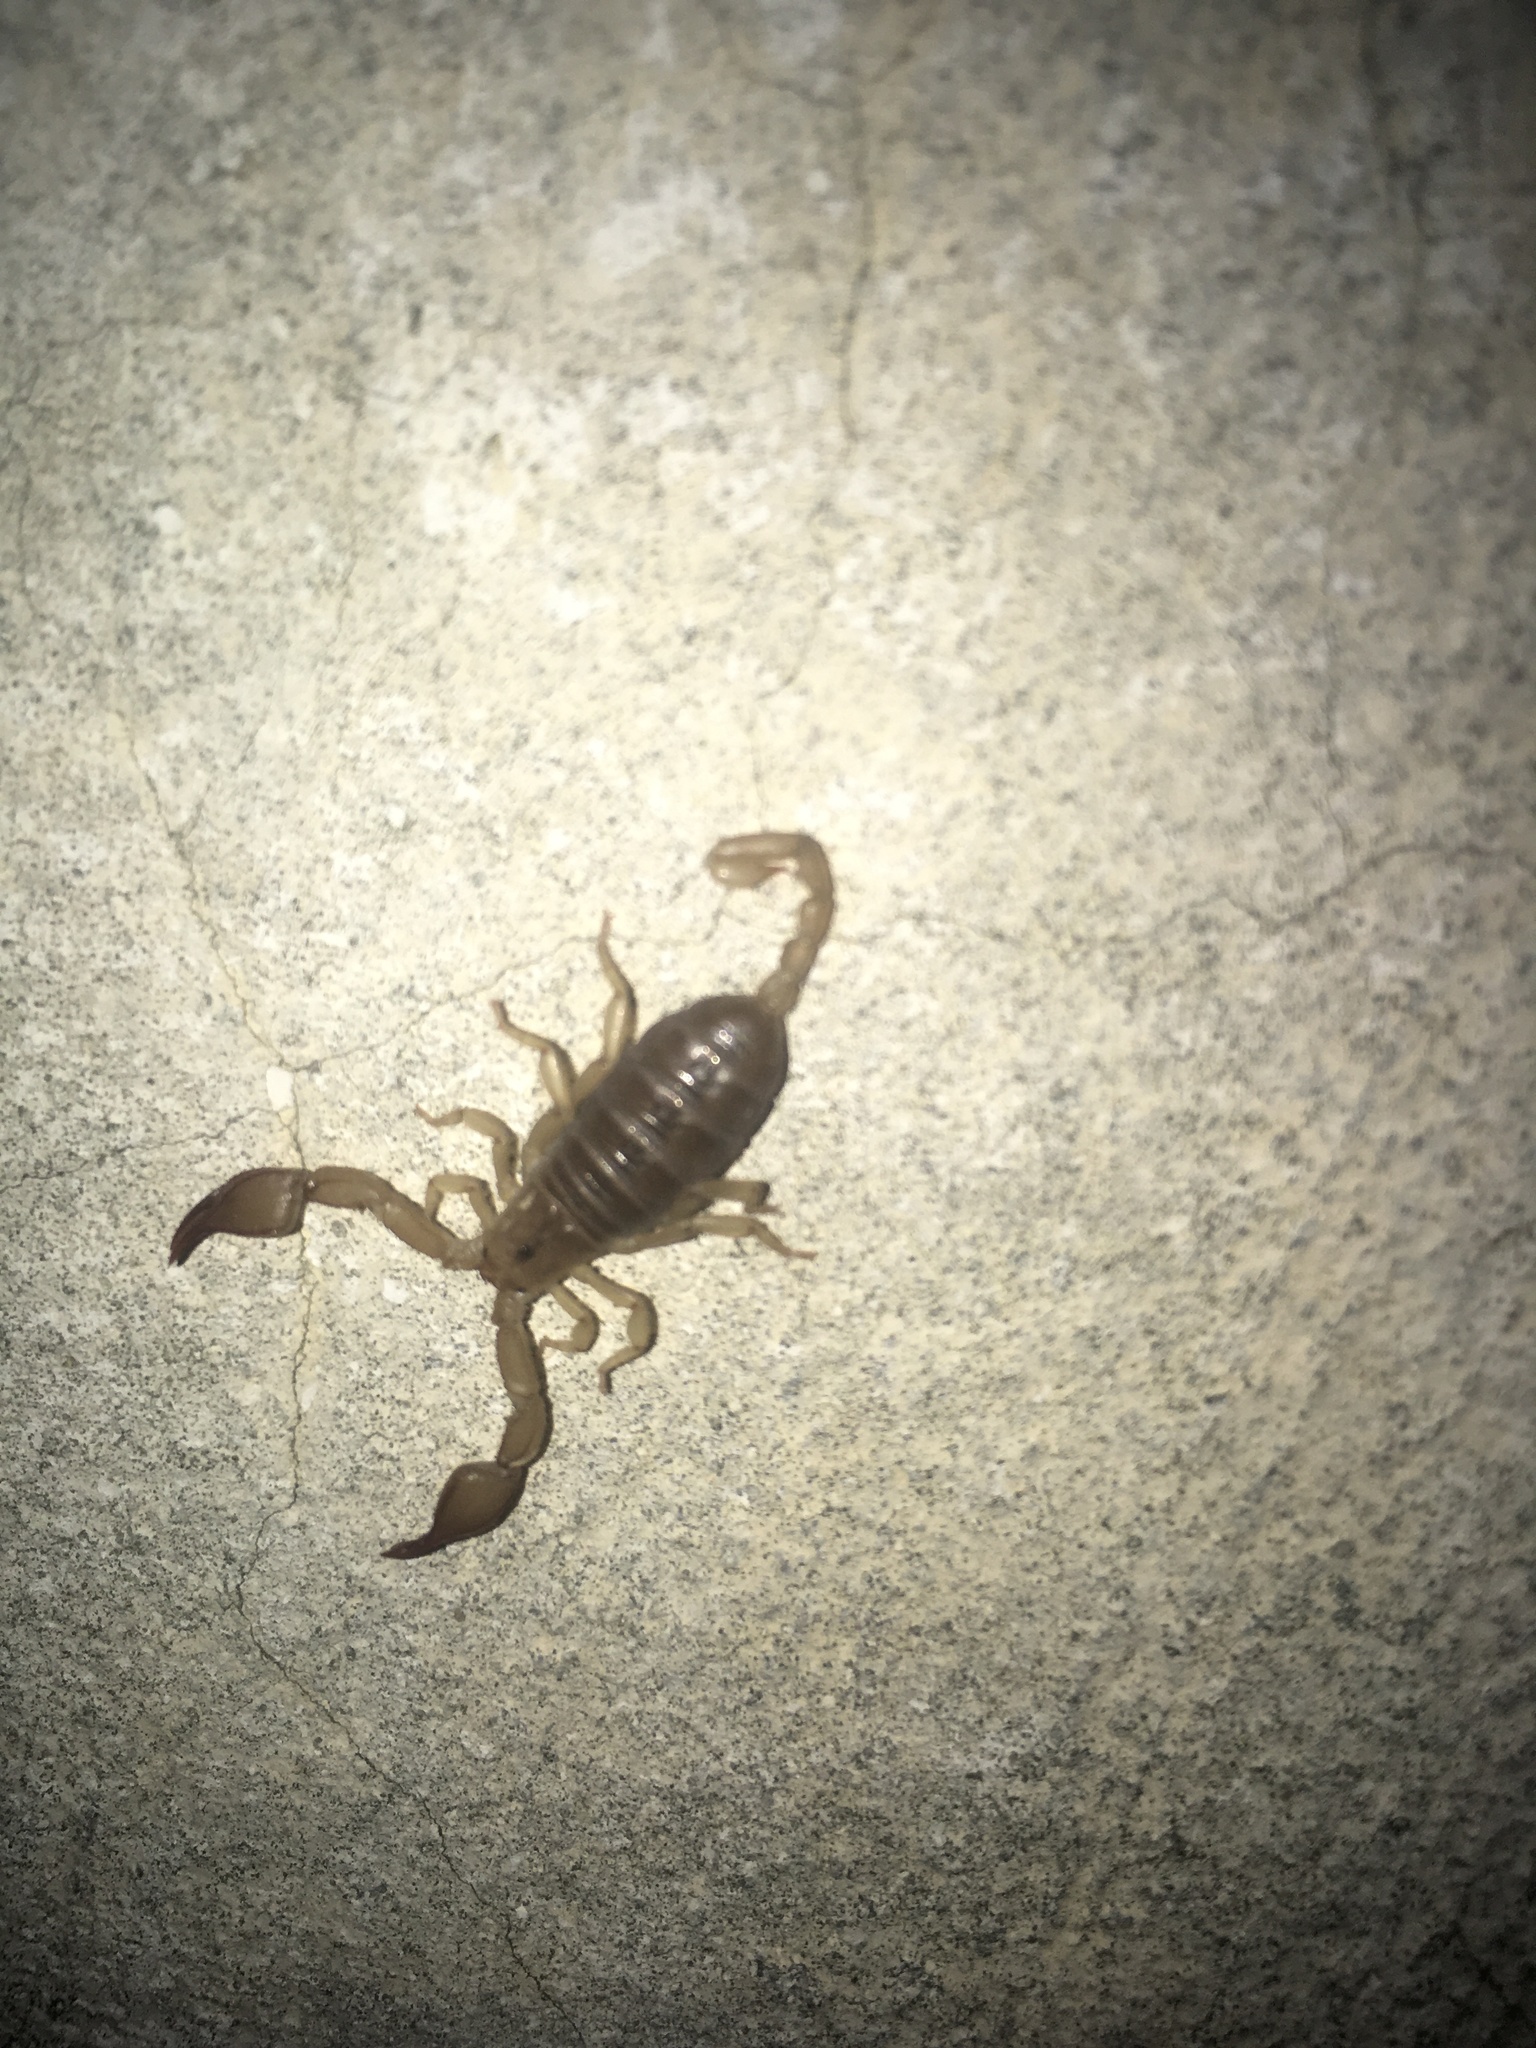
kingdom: Animalia
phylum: Arthropoda
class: Arachnida
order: Scorpiones
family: Euscorpiidae
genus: Euscorpius
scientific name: Euscorpius tauricus
